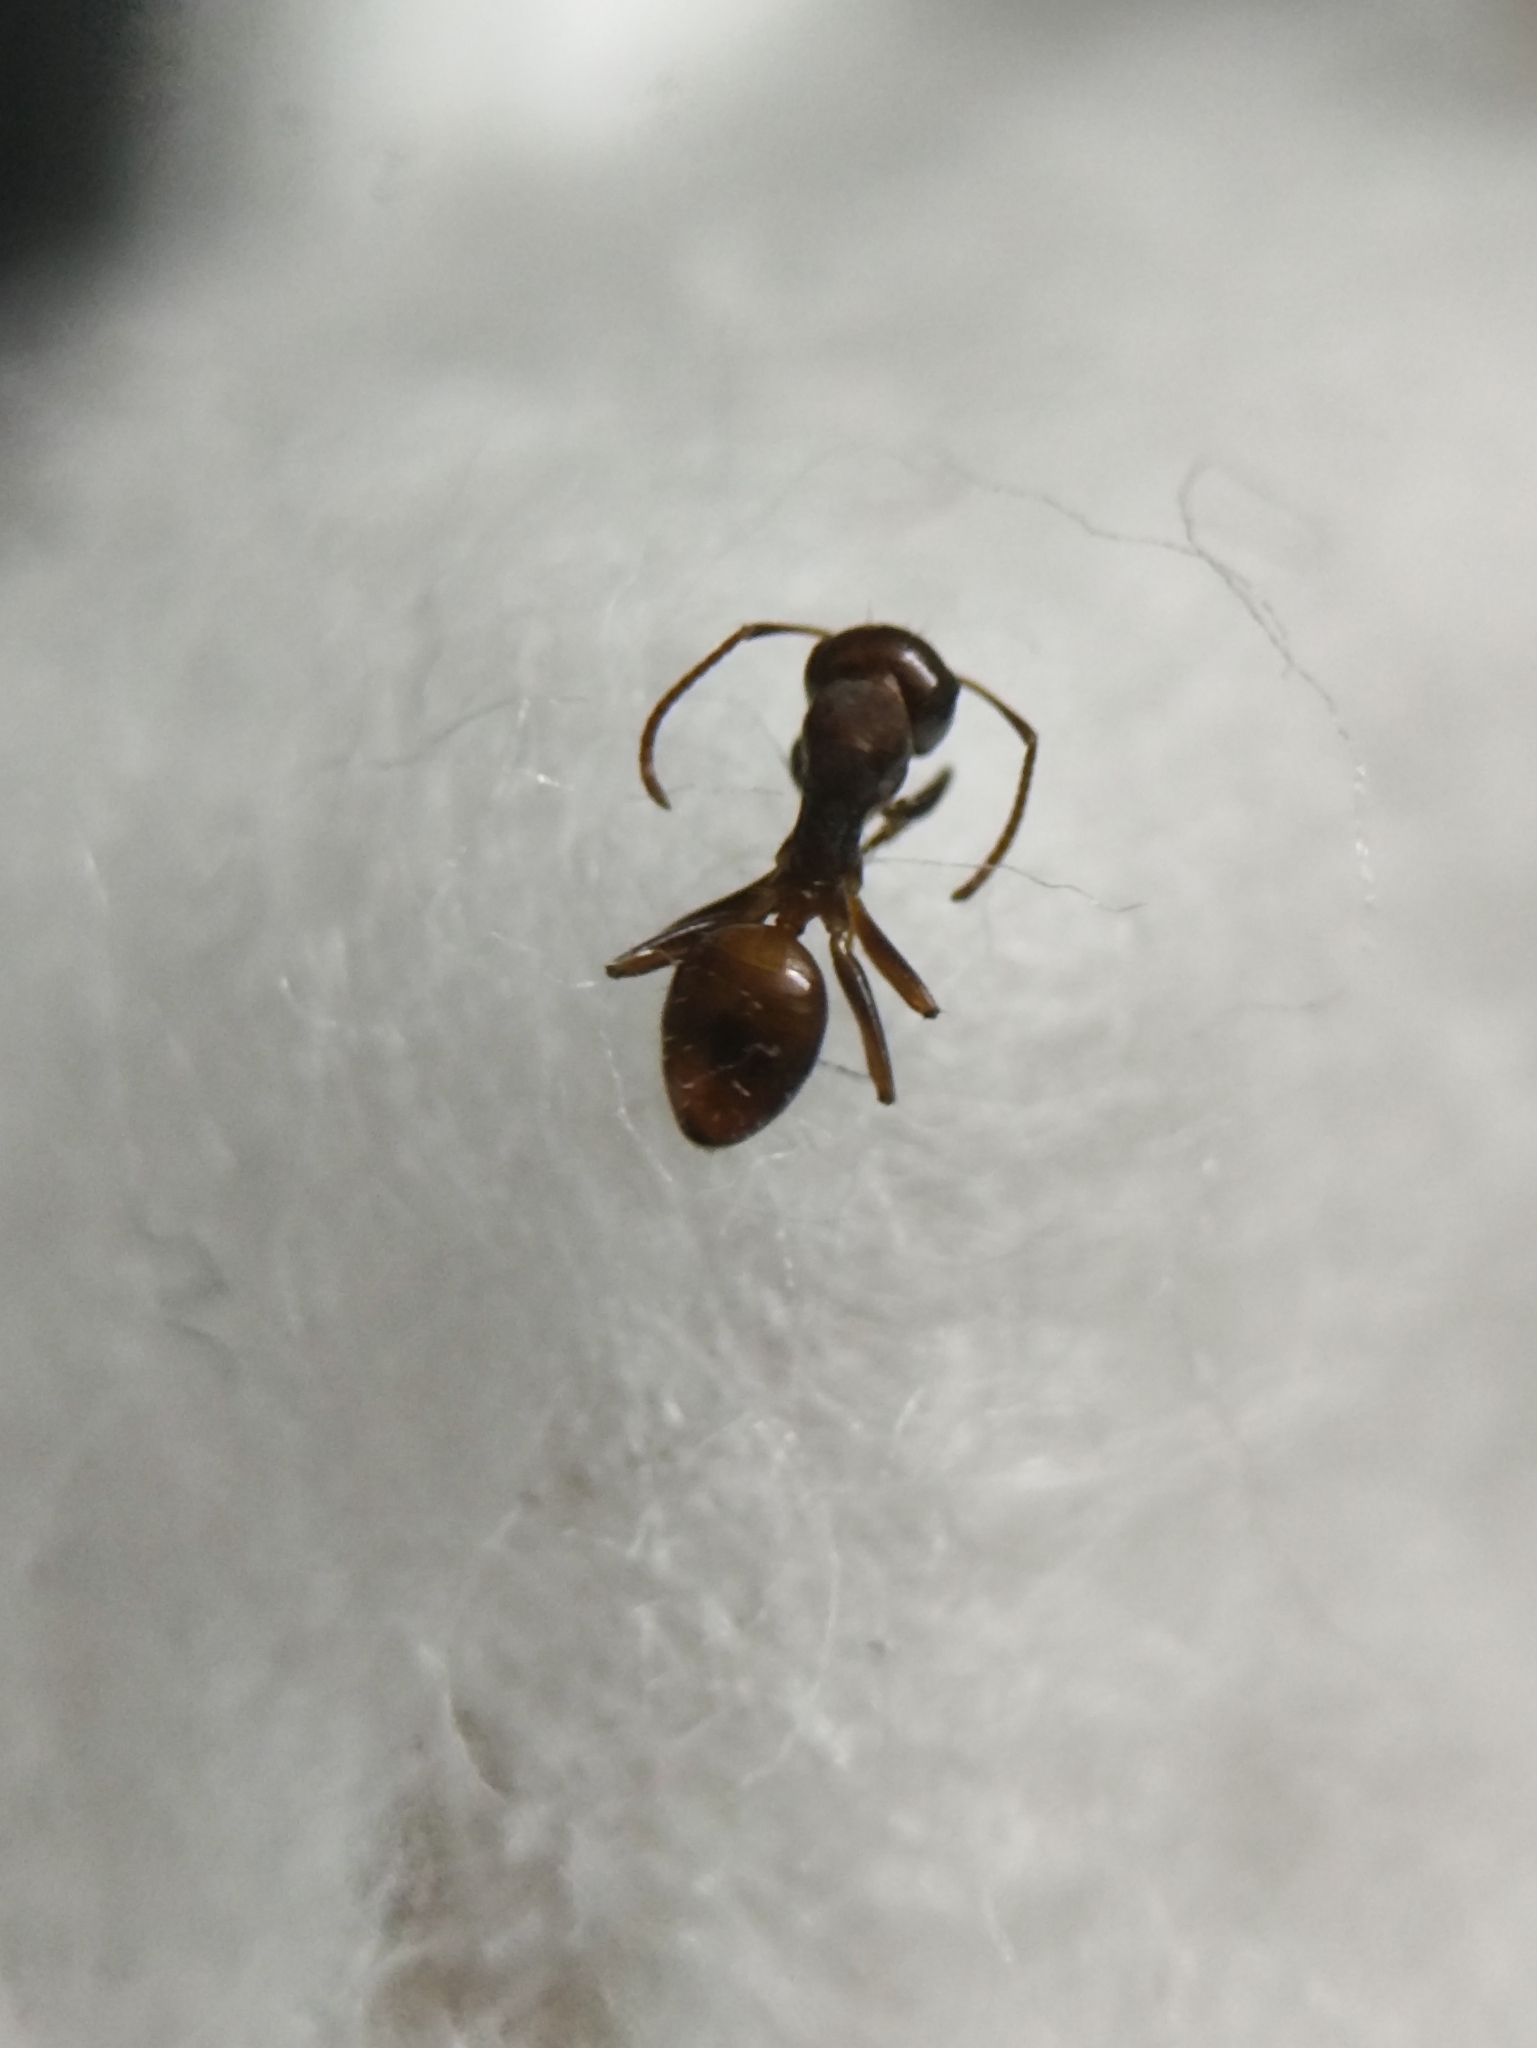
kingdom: Animalia
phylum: Arthropoda
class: Insecta
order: Hymenoptera
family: Formicidae
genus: Camponotus
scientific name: Camponotus nirvanae
